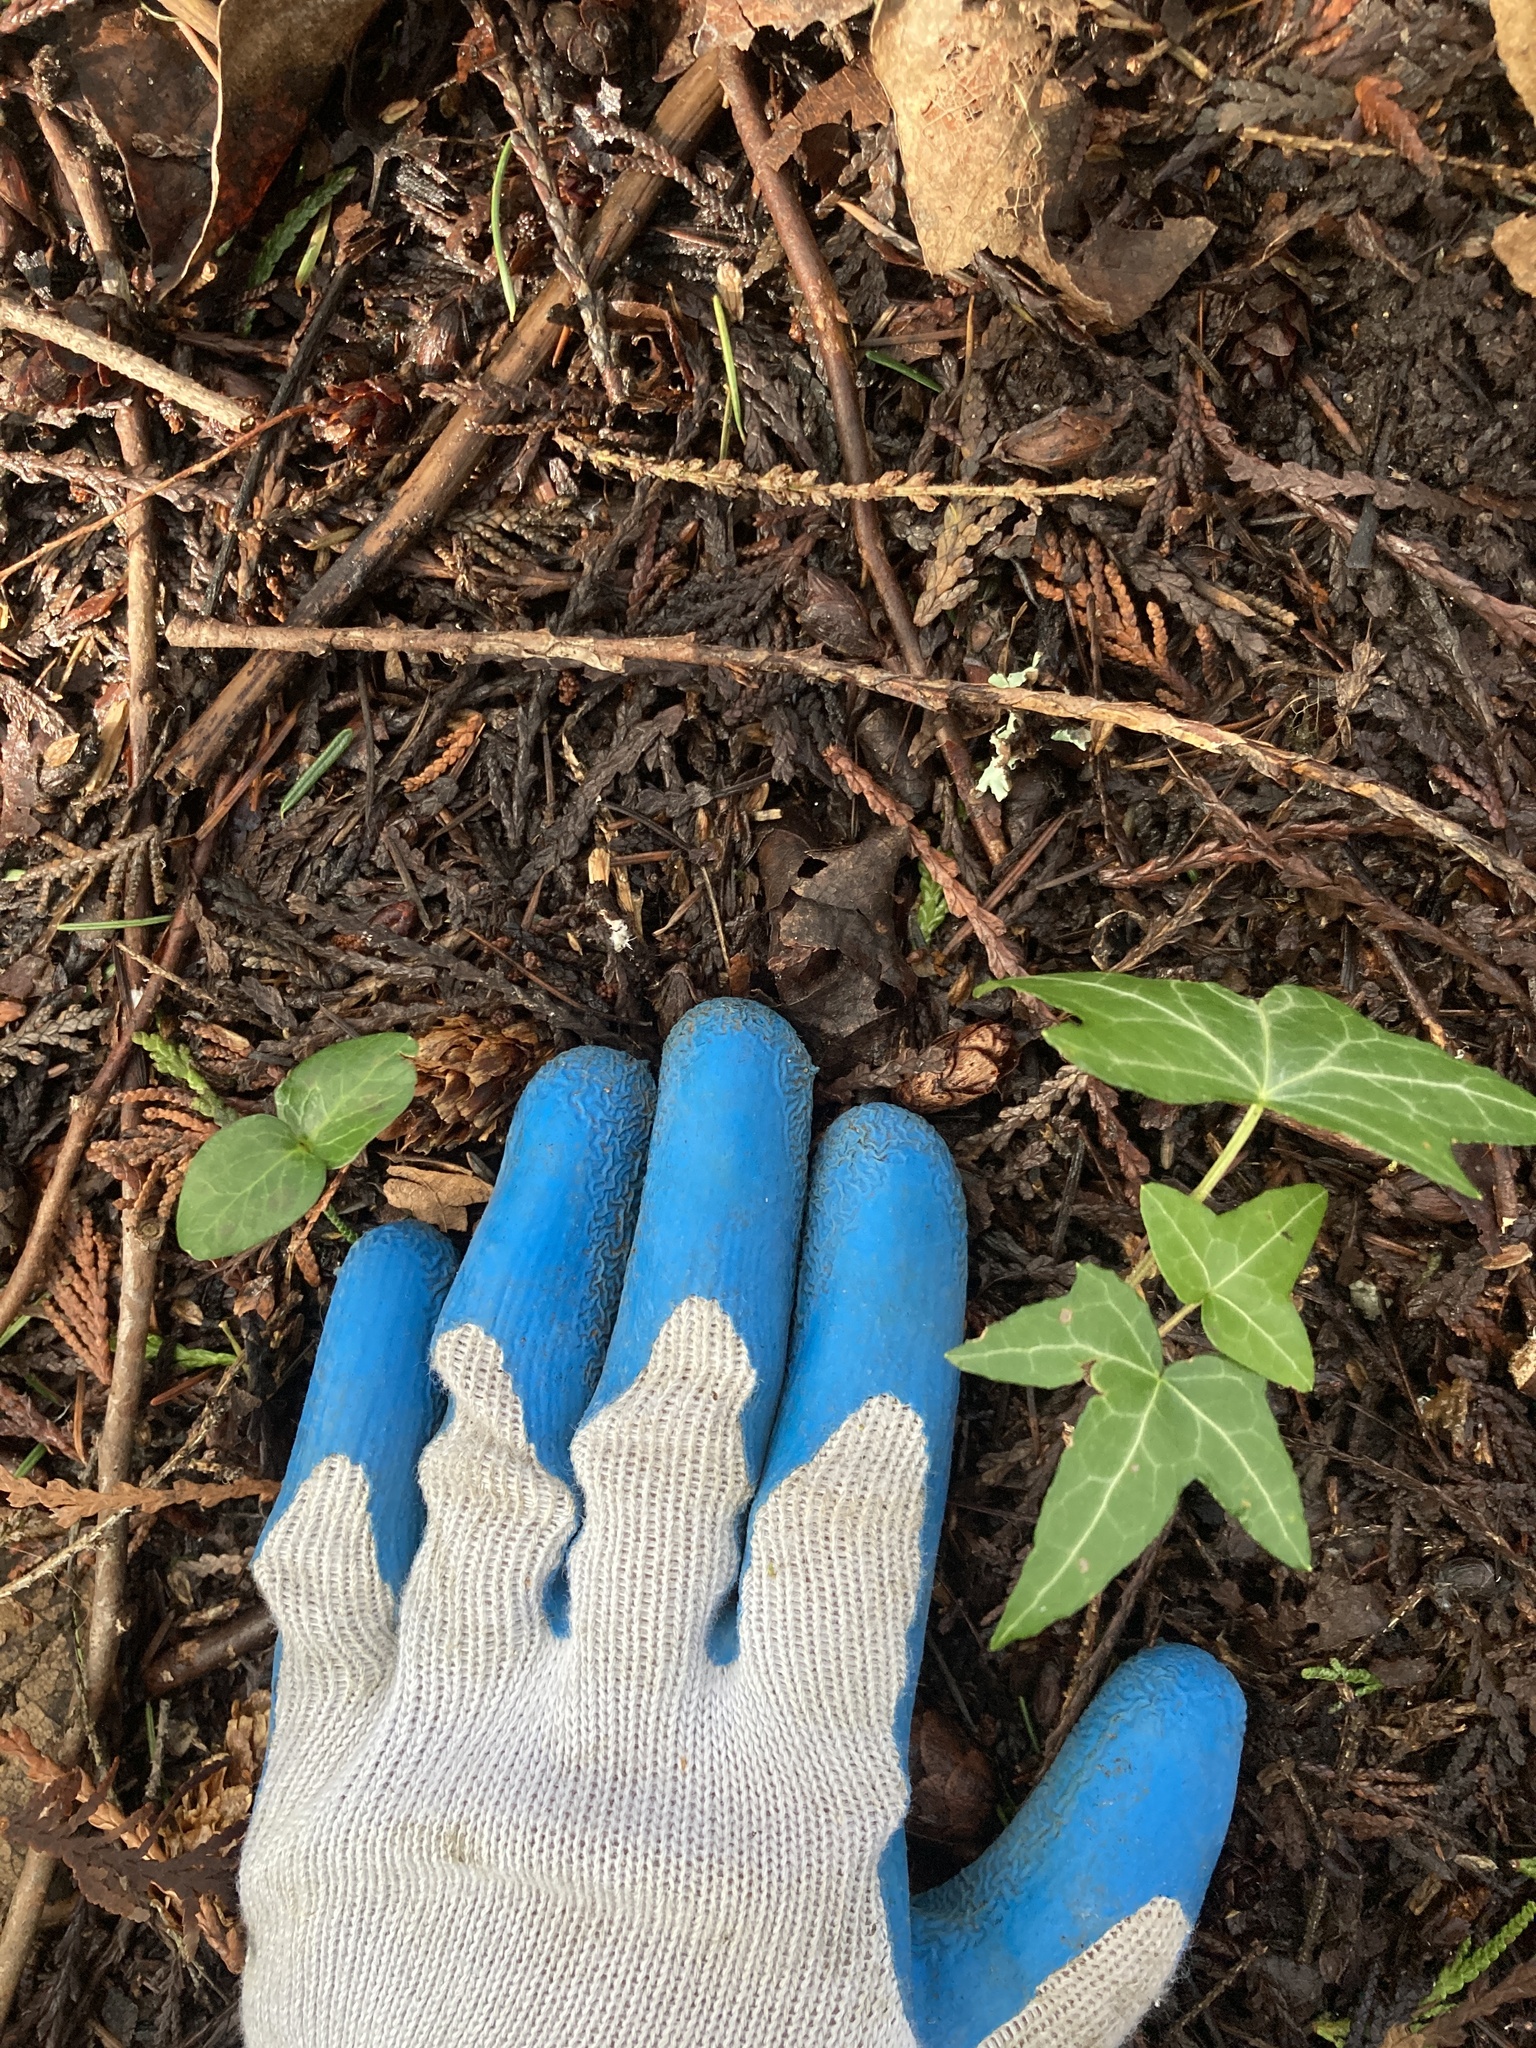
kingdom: Plantae
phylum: Tracheophyta
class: Magnoliopsida
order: Apiales
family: Araliaceae
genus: Hedera
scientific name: Hedera helix
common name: Ivy
